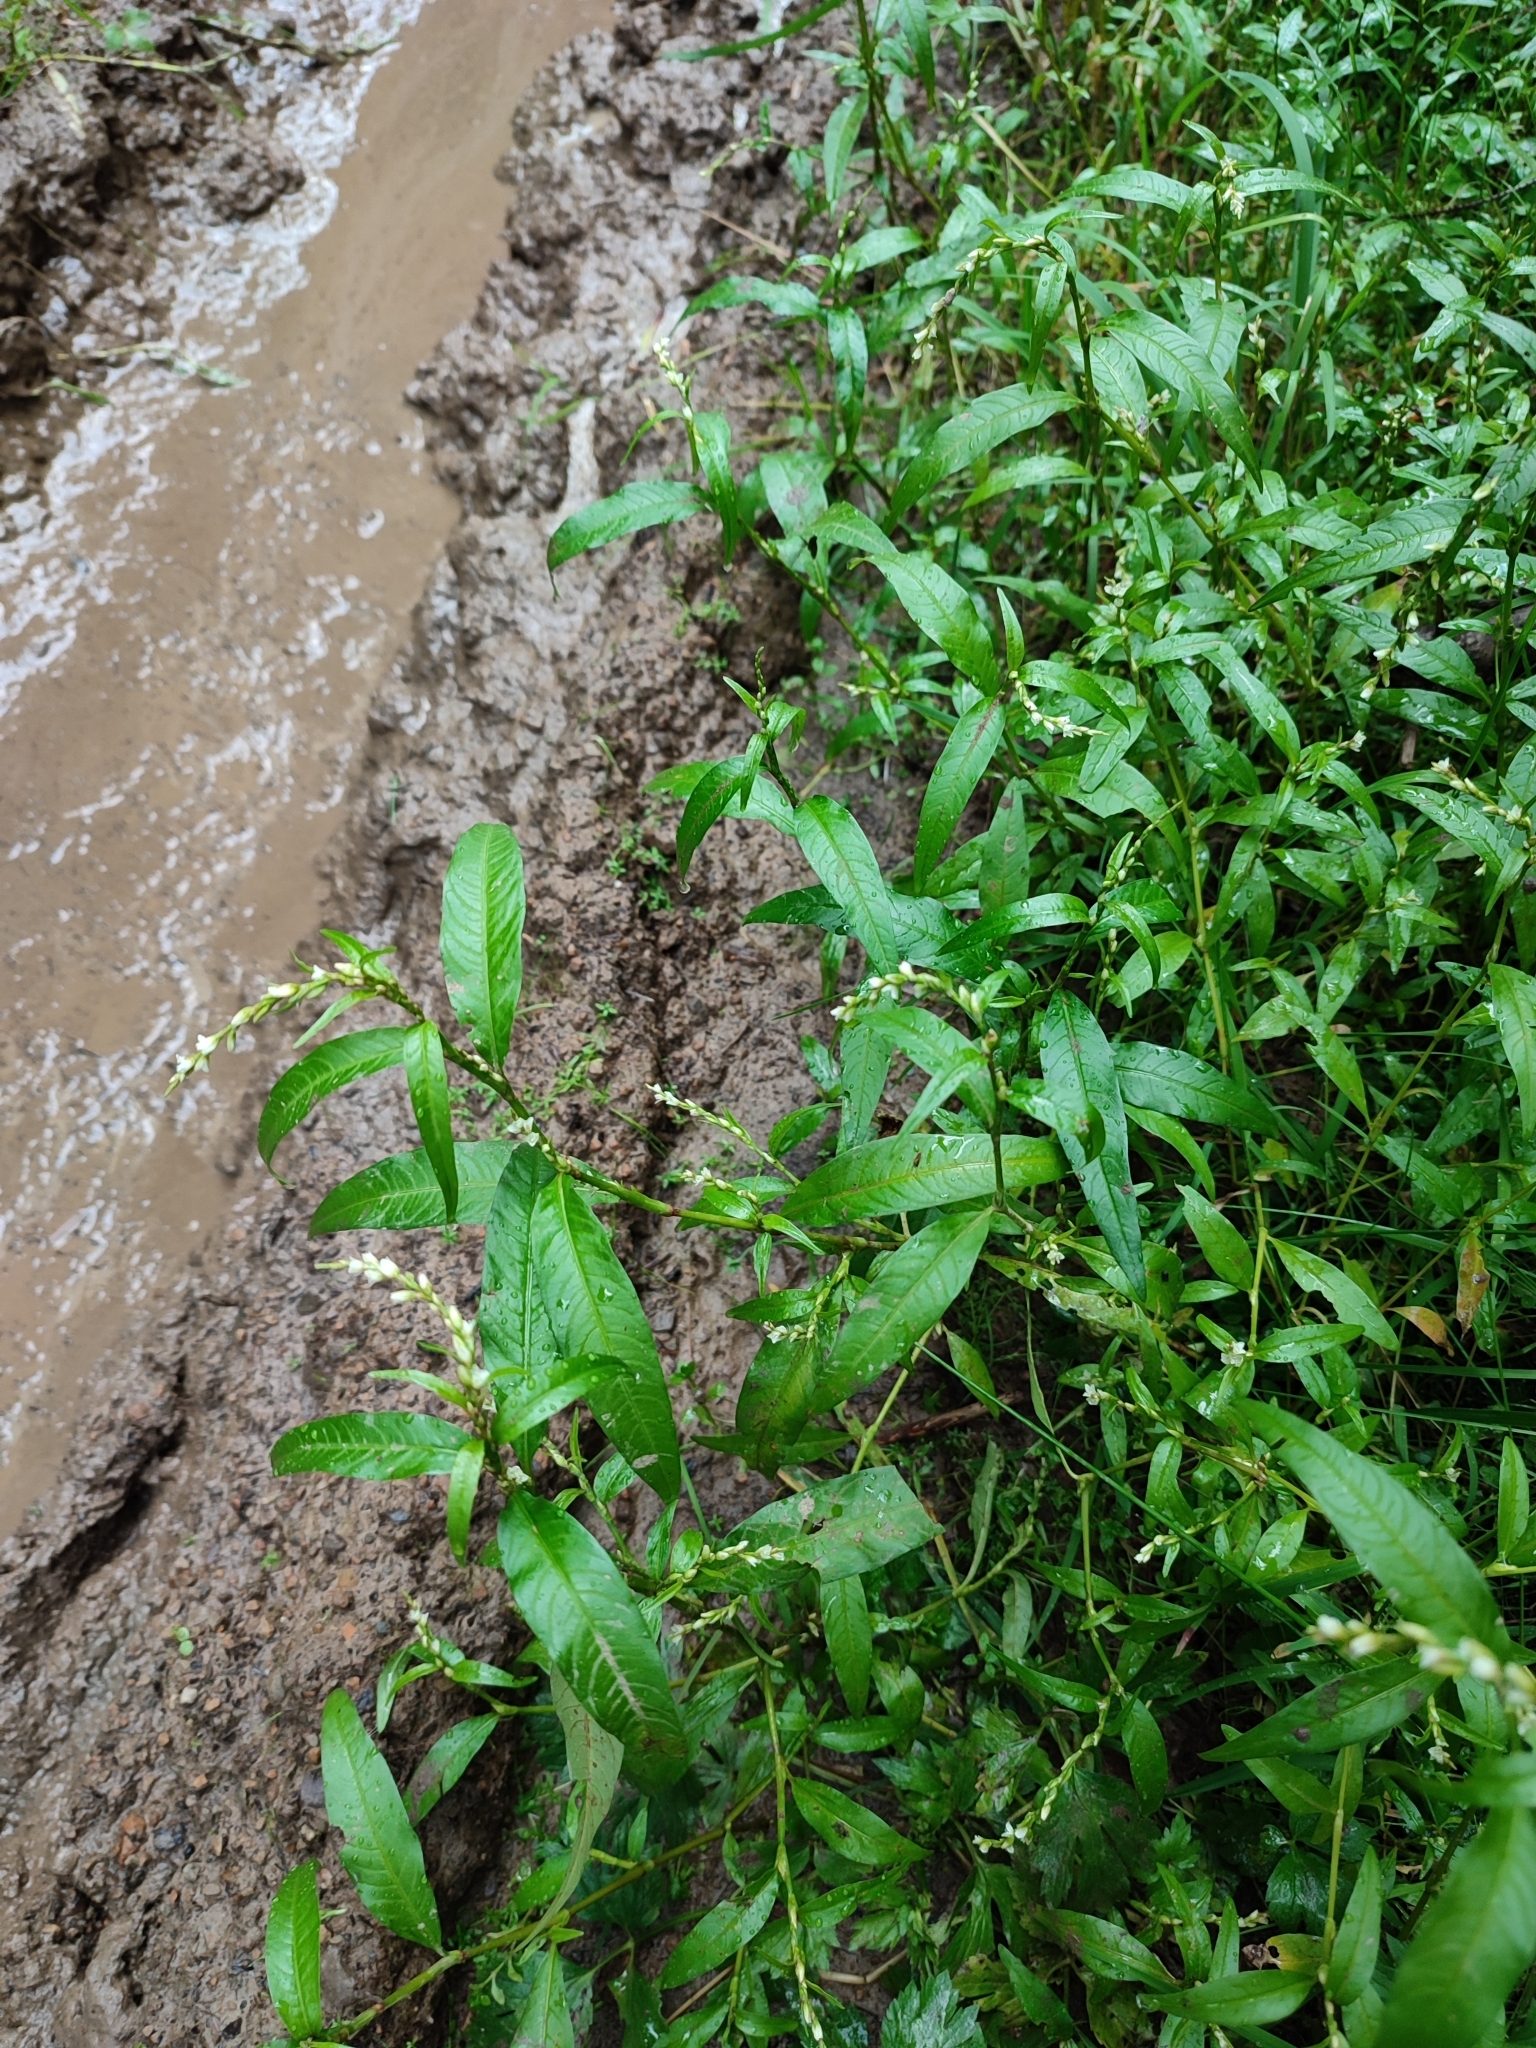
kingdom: Plantae
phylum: Tracheophyta
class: Magnoliopsida
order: Caryophyllales
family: Polygonaceae
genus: Persicaria
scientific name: Persicaria hydropiper
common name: Water-pepper
